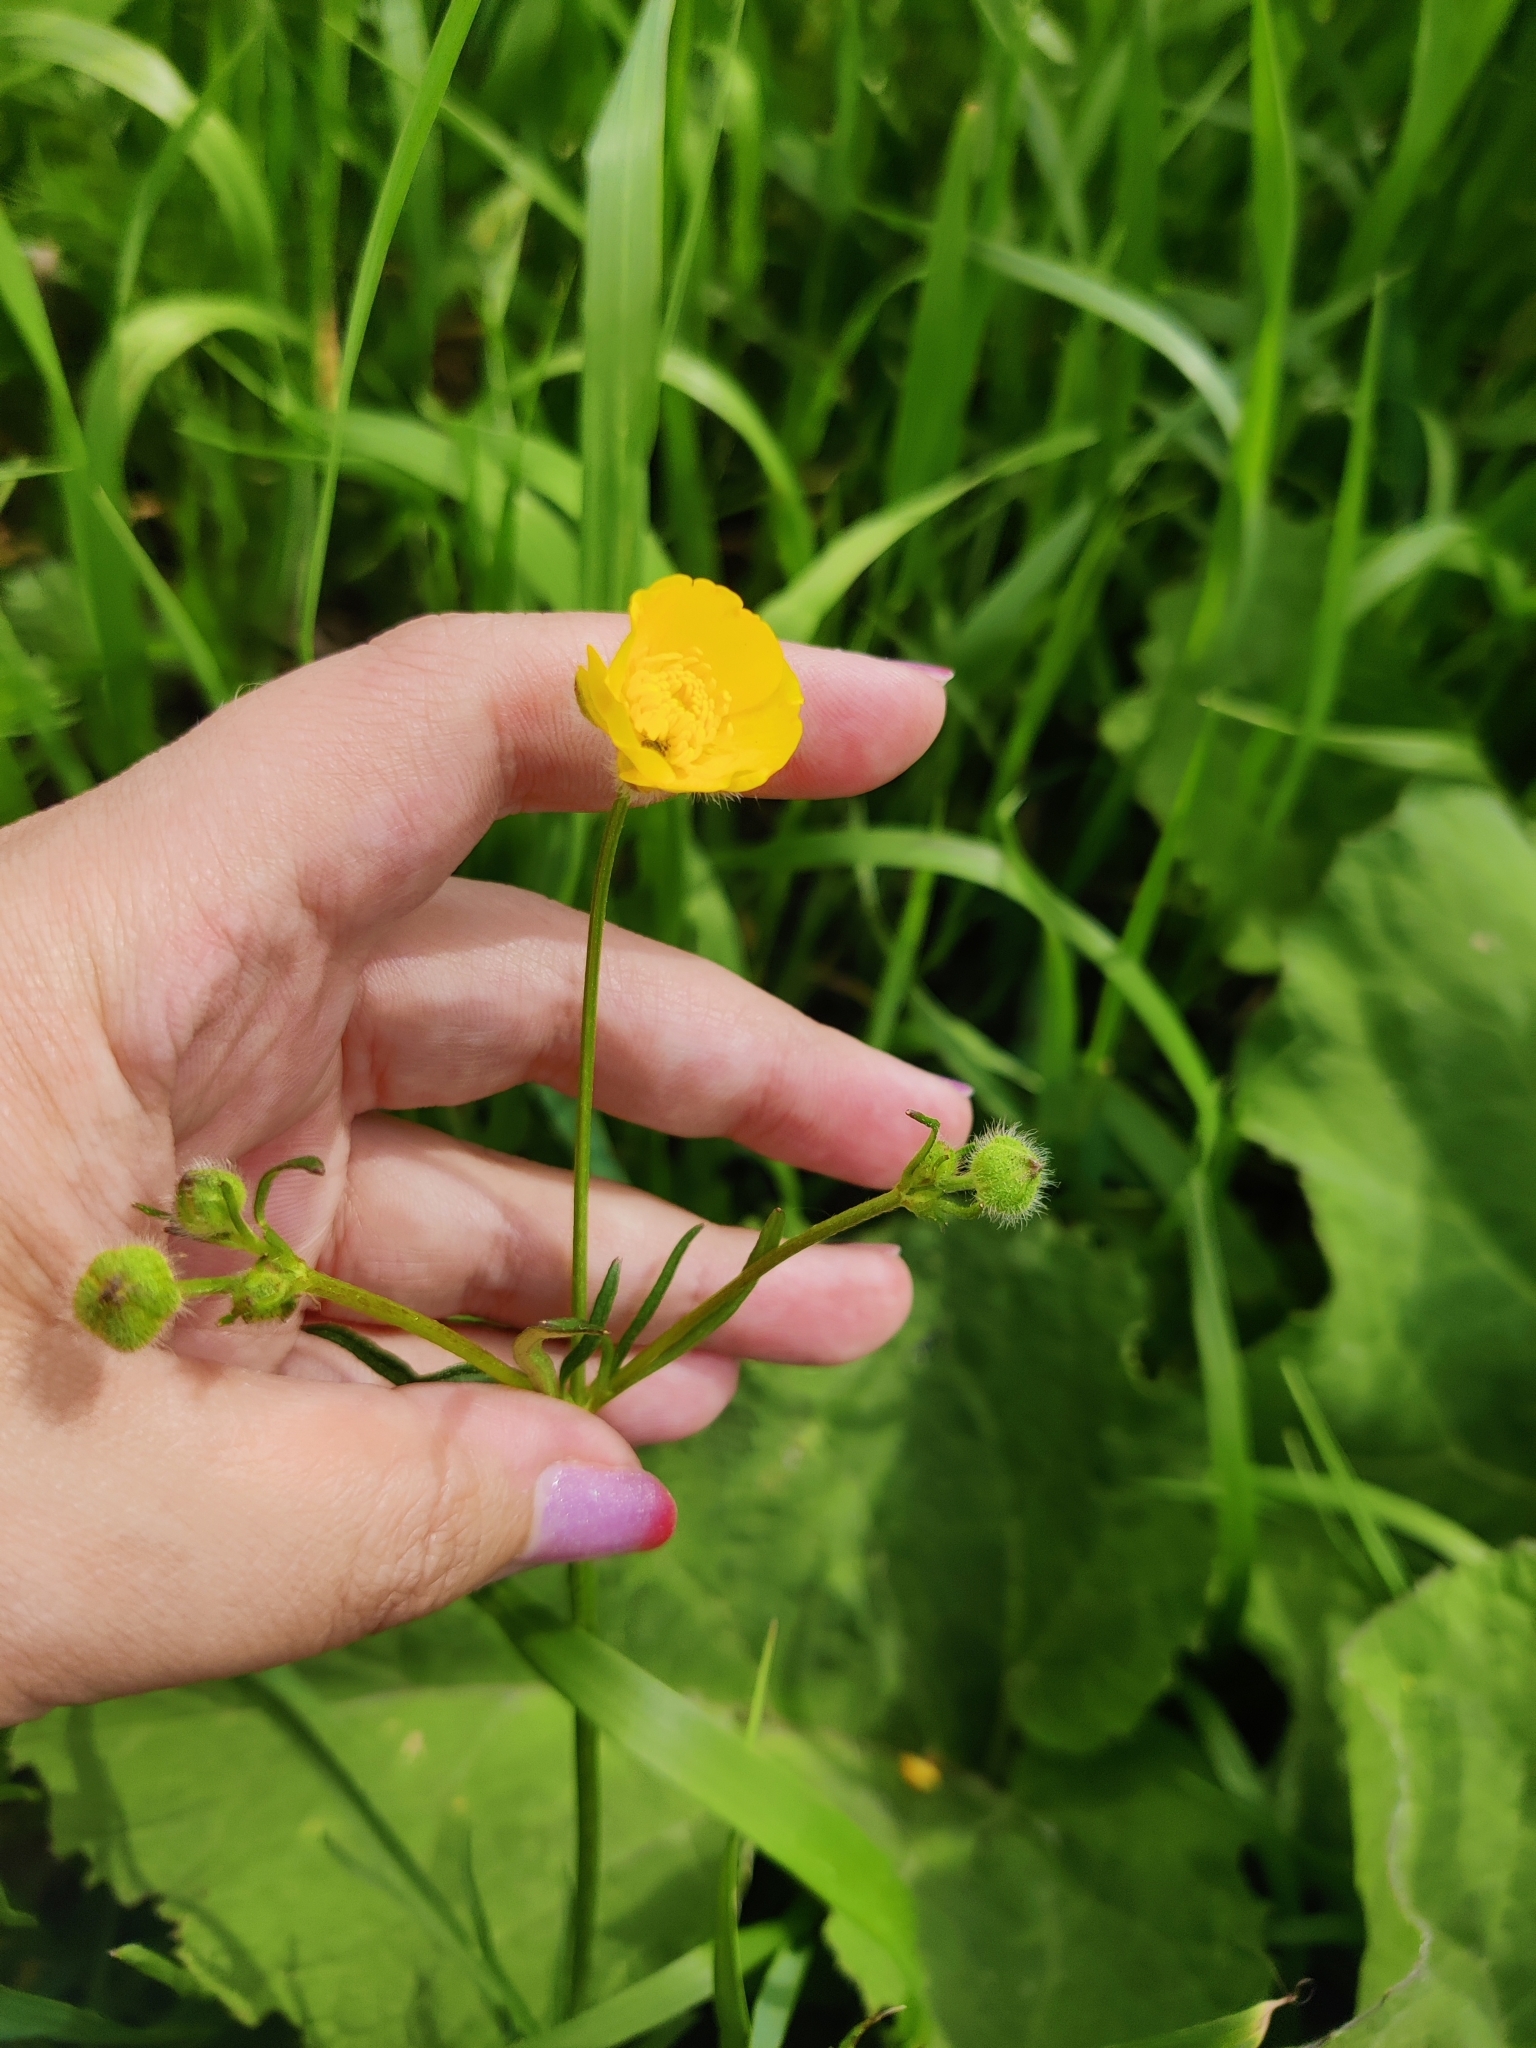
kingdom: Plantae
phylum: Tracheophyta
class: Magnoliopsida
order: Ranunculales
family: Ranunculaceae
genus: Ranunculus
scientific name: Ranunculus polyanthemos
